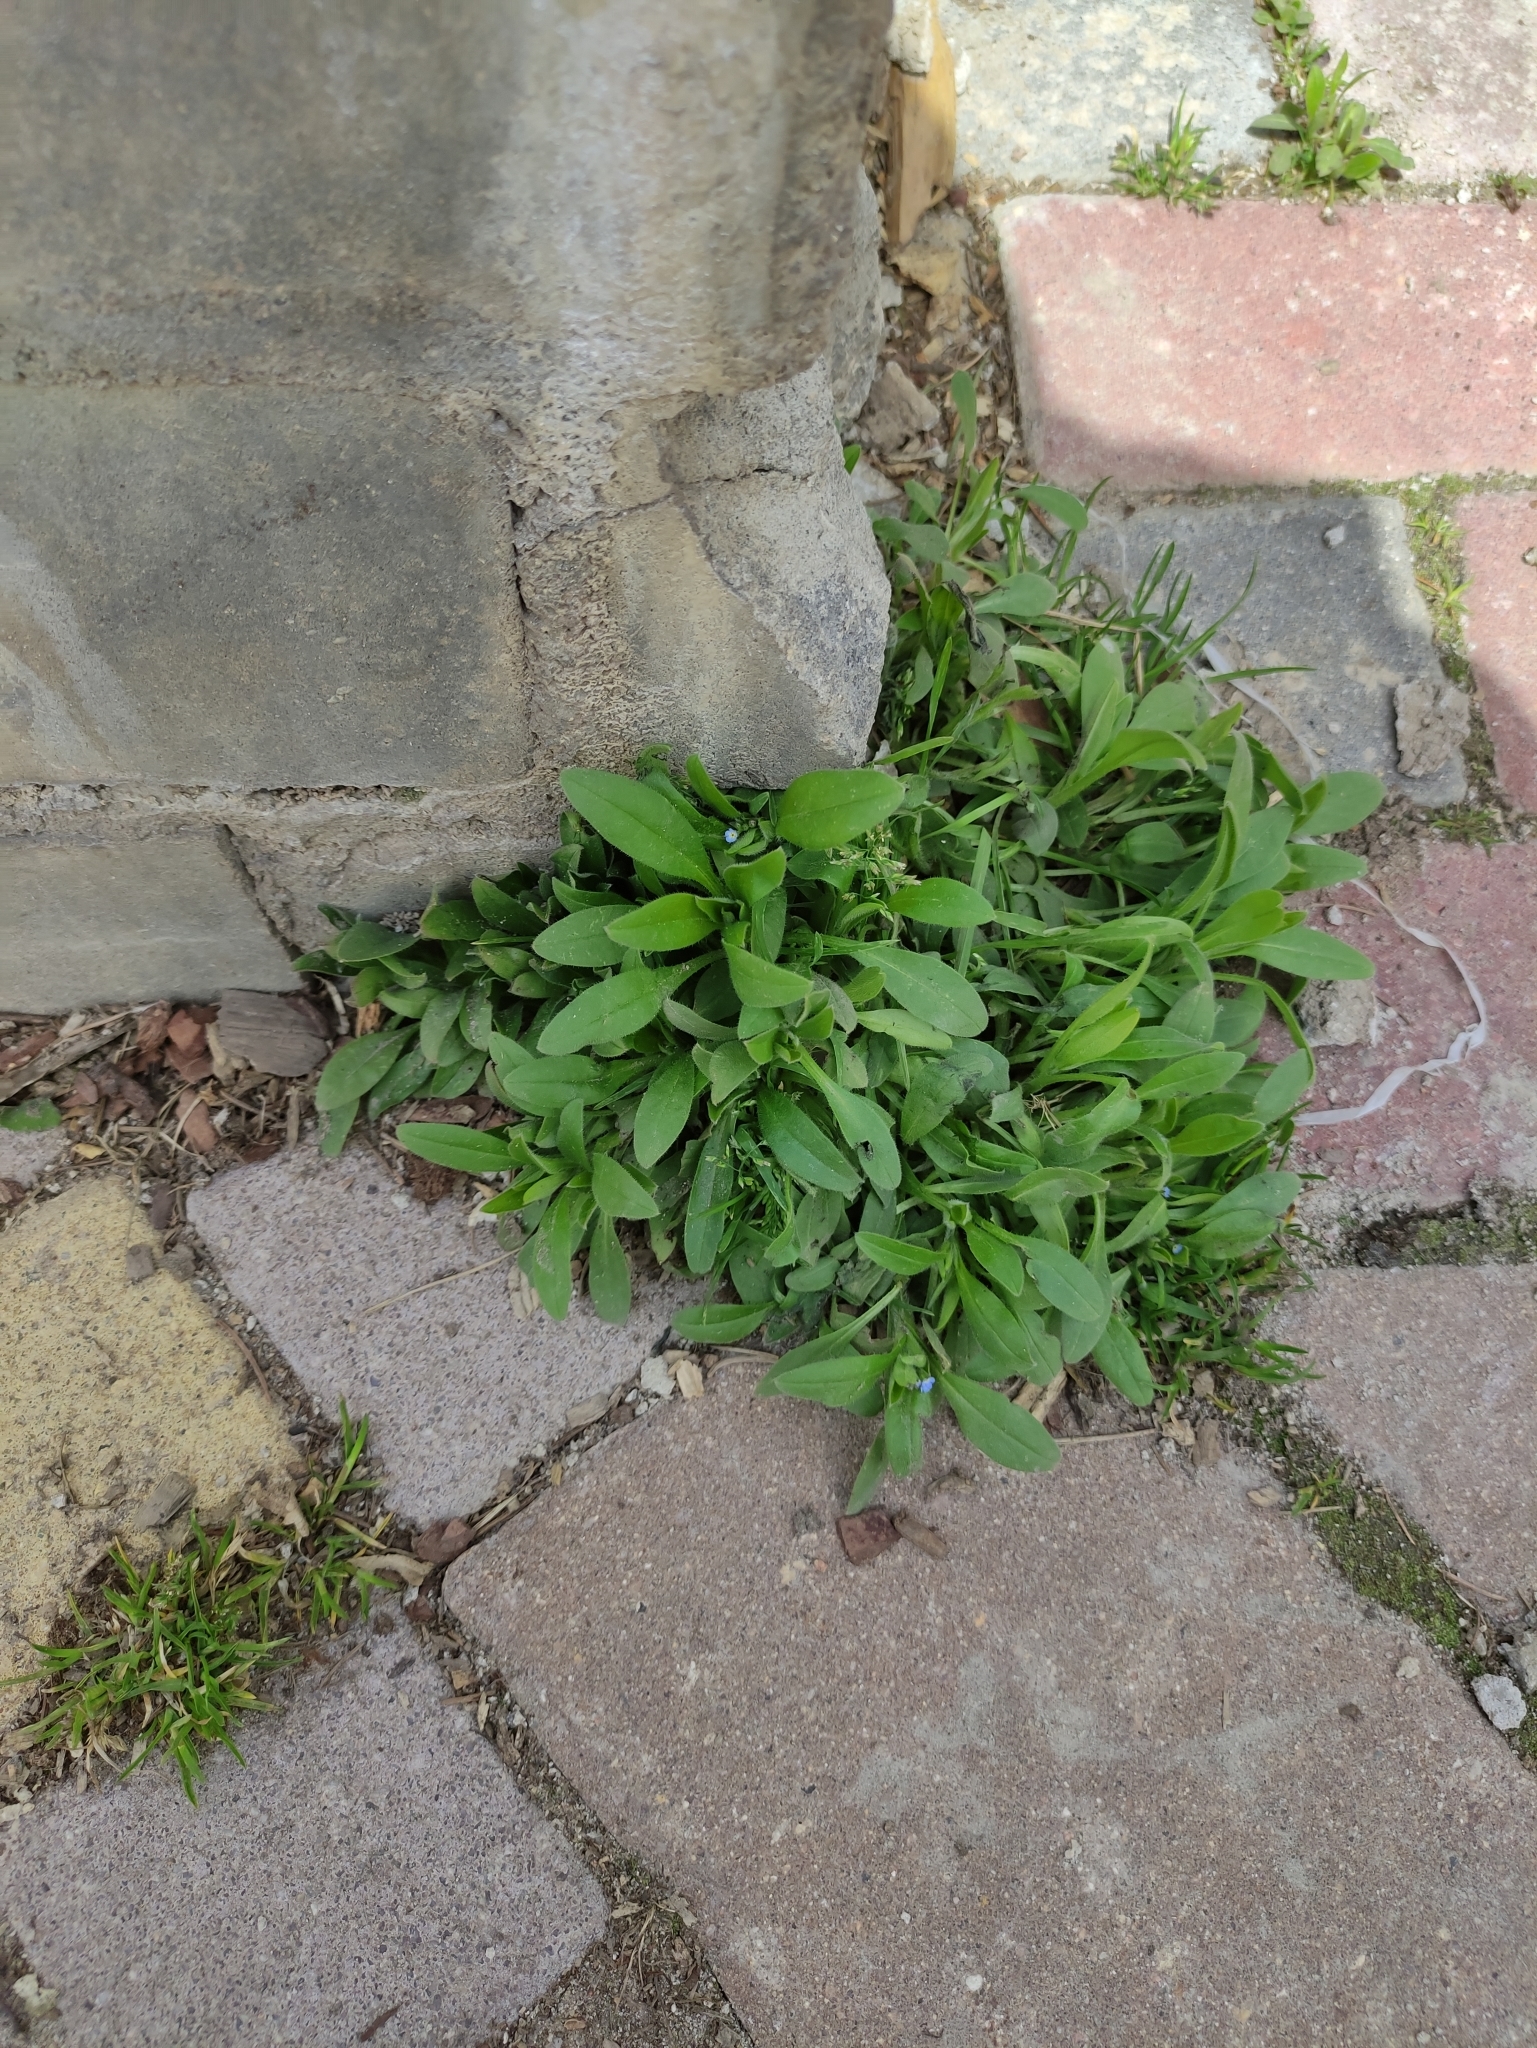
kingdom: Plantae
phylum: Tracheophyta
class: Magnoliopsida
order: Boraginales
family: Boraginaceae
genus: Myosotis
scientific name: Myosotis sparsiflora
